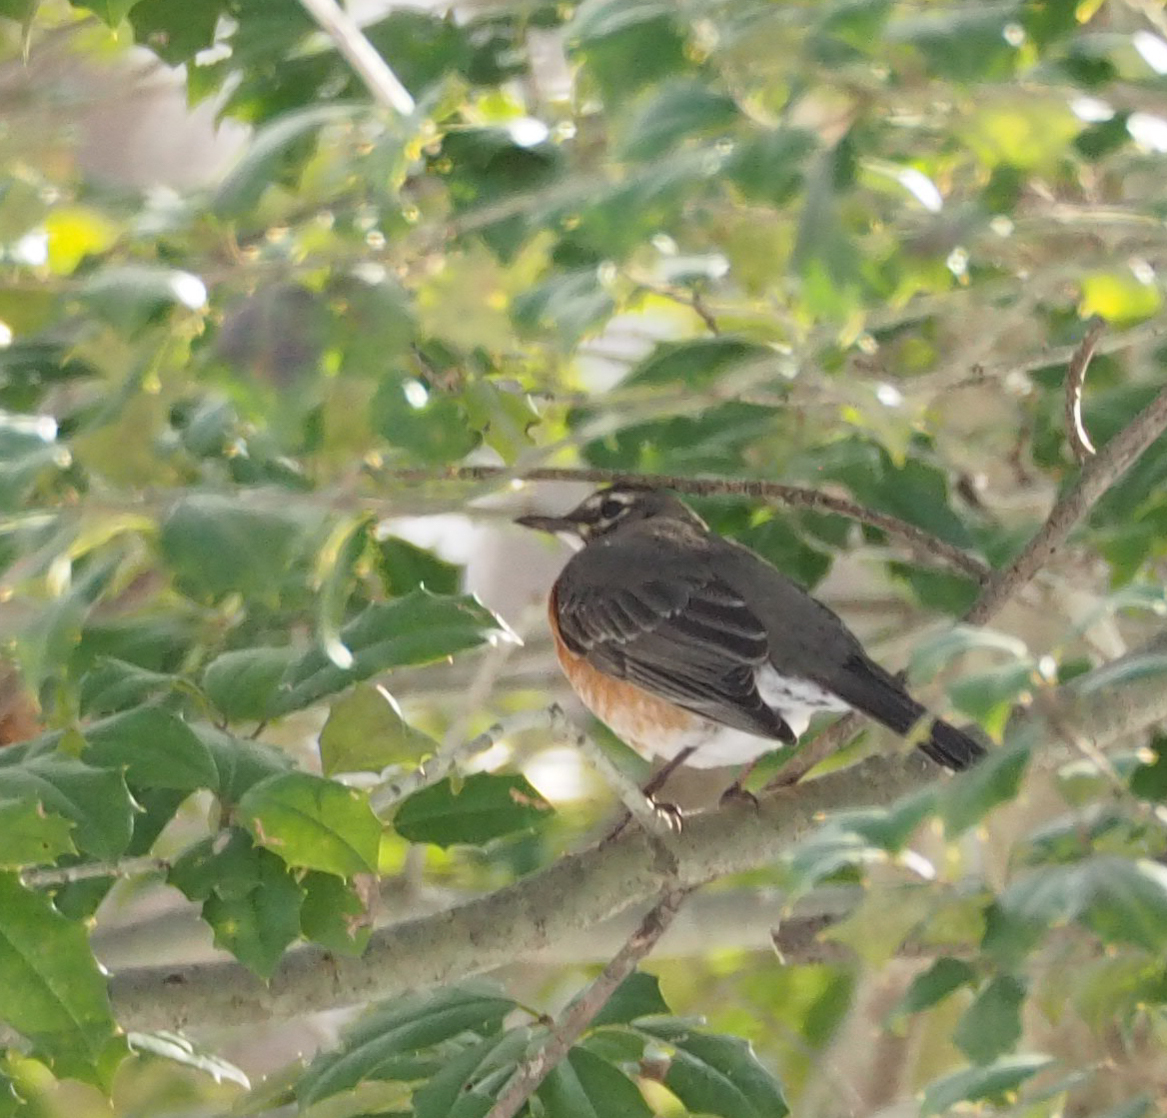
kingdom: Animalia
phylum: Chordata
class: Aves
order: Passeriformes
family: Turdidae
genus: Turdus
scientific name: Turdus migratorius
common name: American robin
